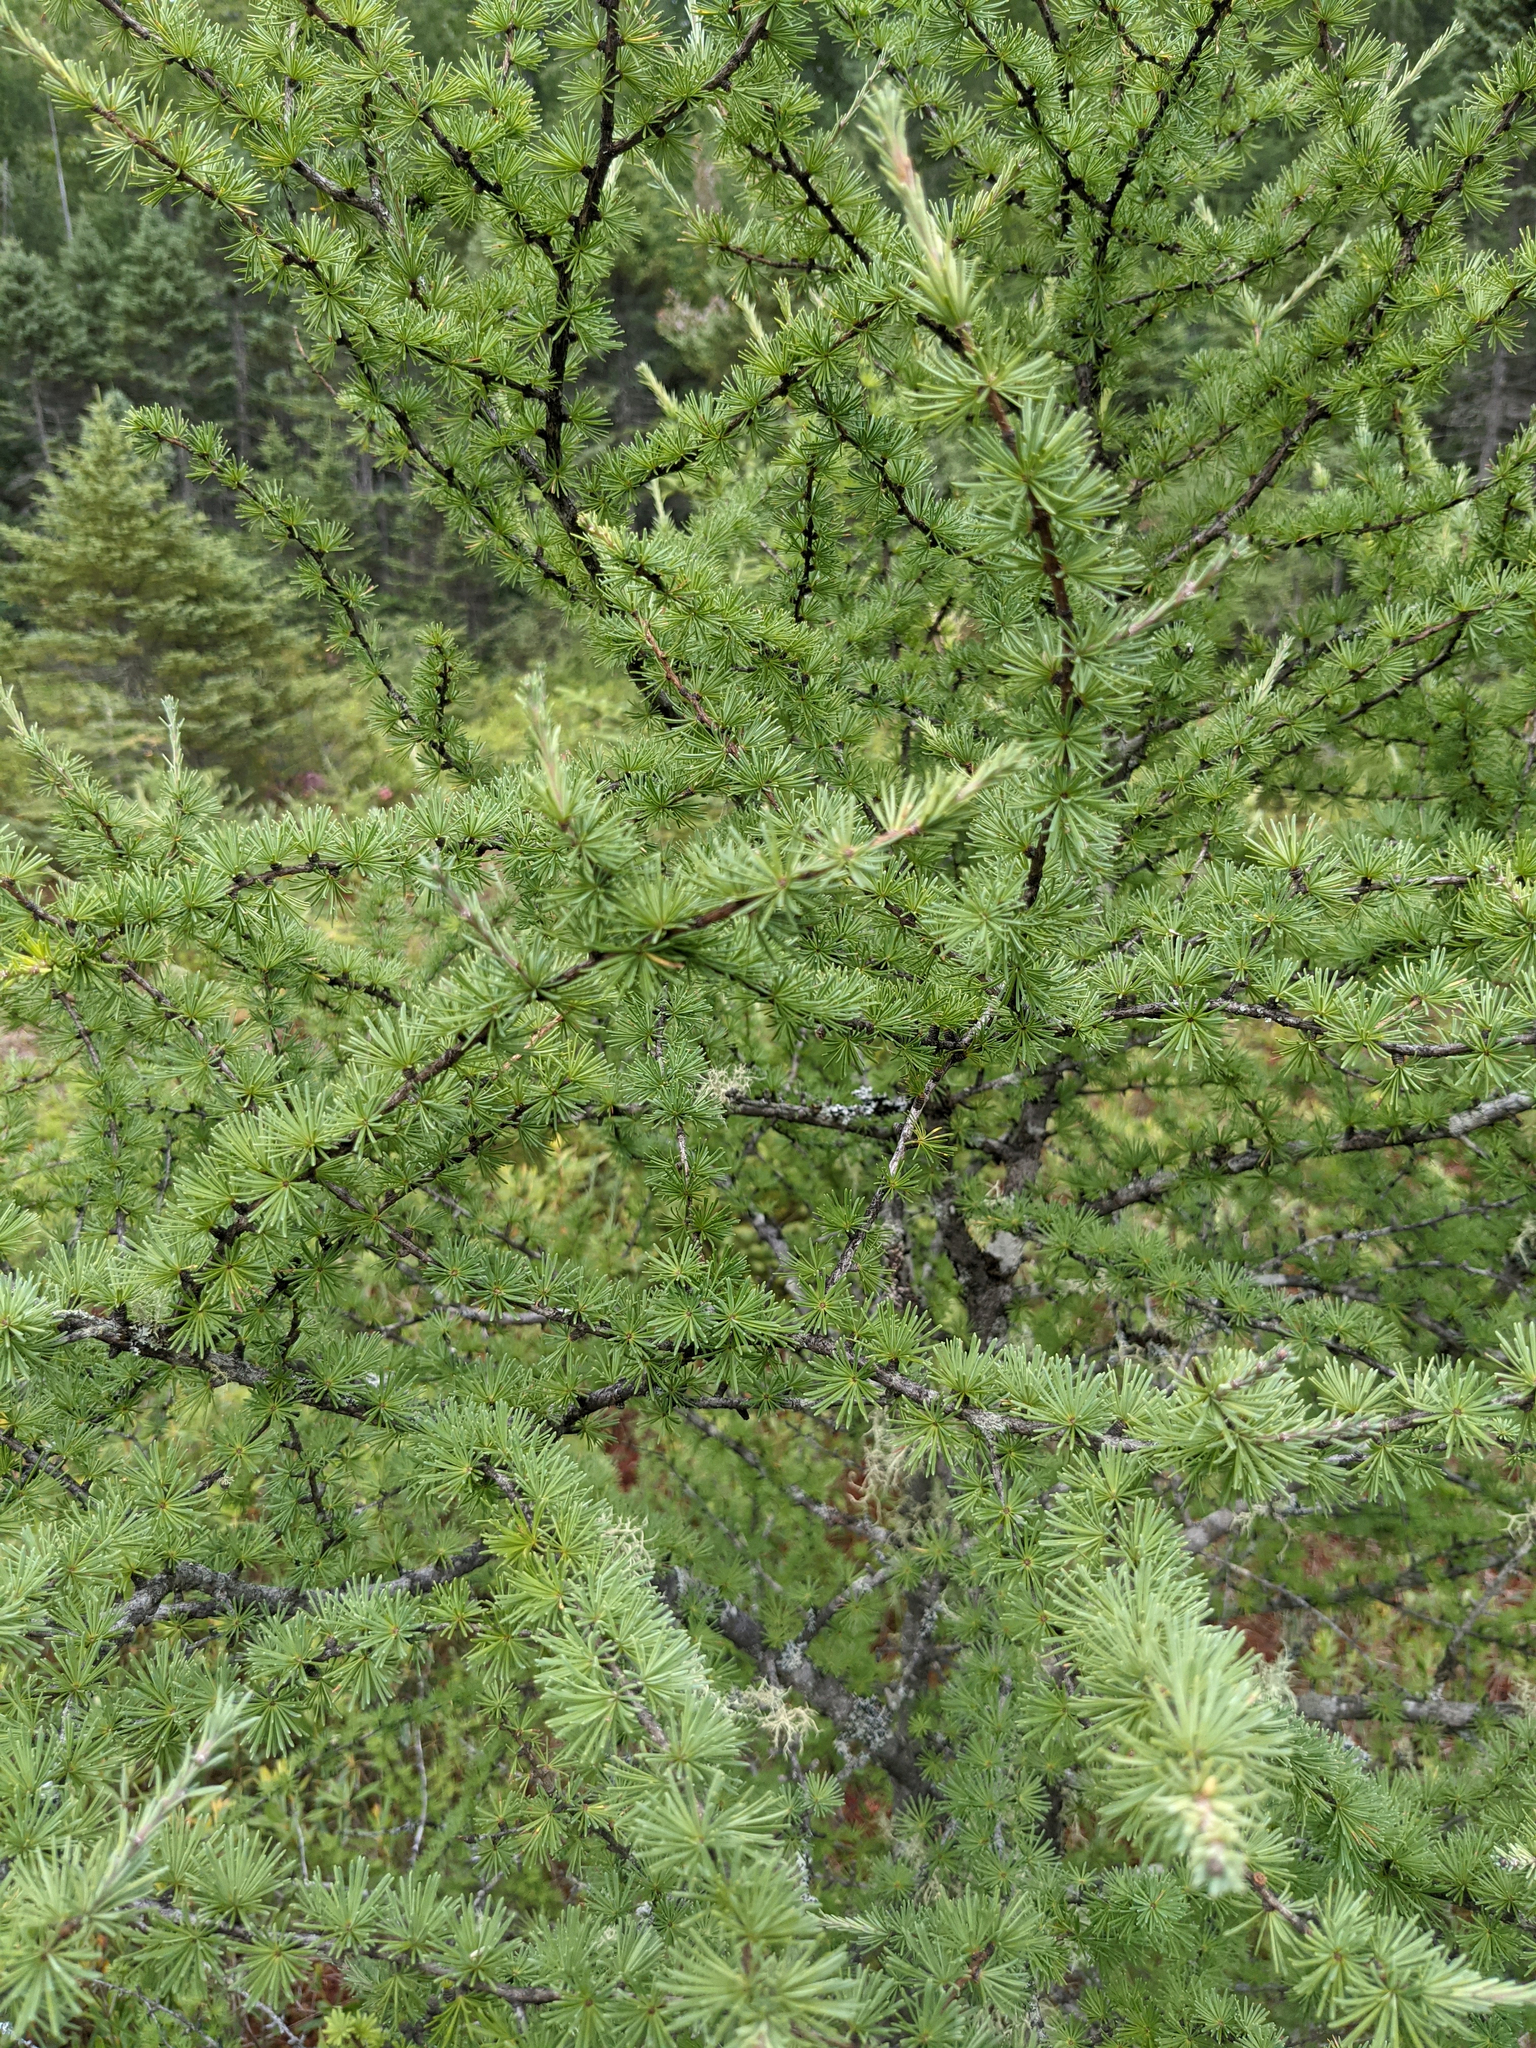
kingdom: Plantae
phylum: Tracheophyta
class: Pinopsida
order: Pinales
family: Pinaceae
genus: Larix
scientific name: Larix laricina
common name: American larch
